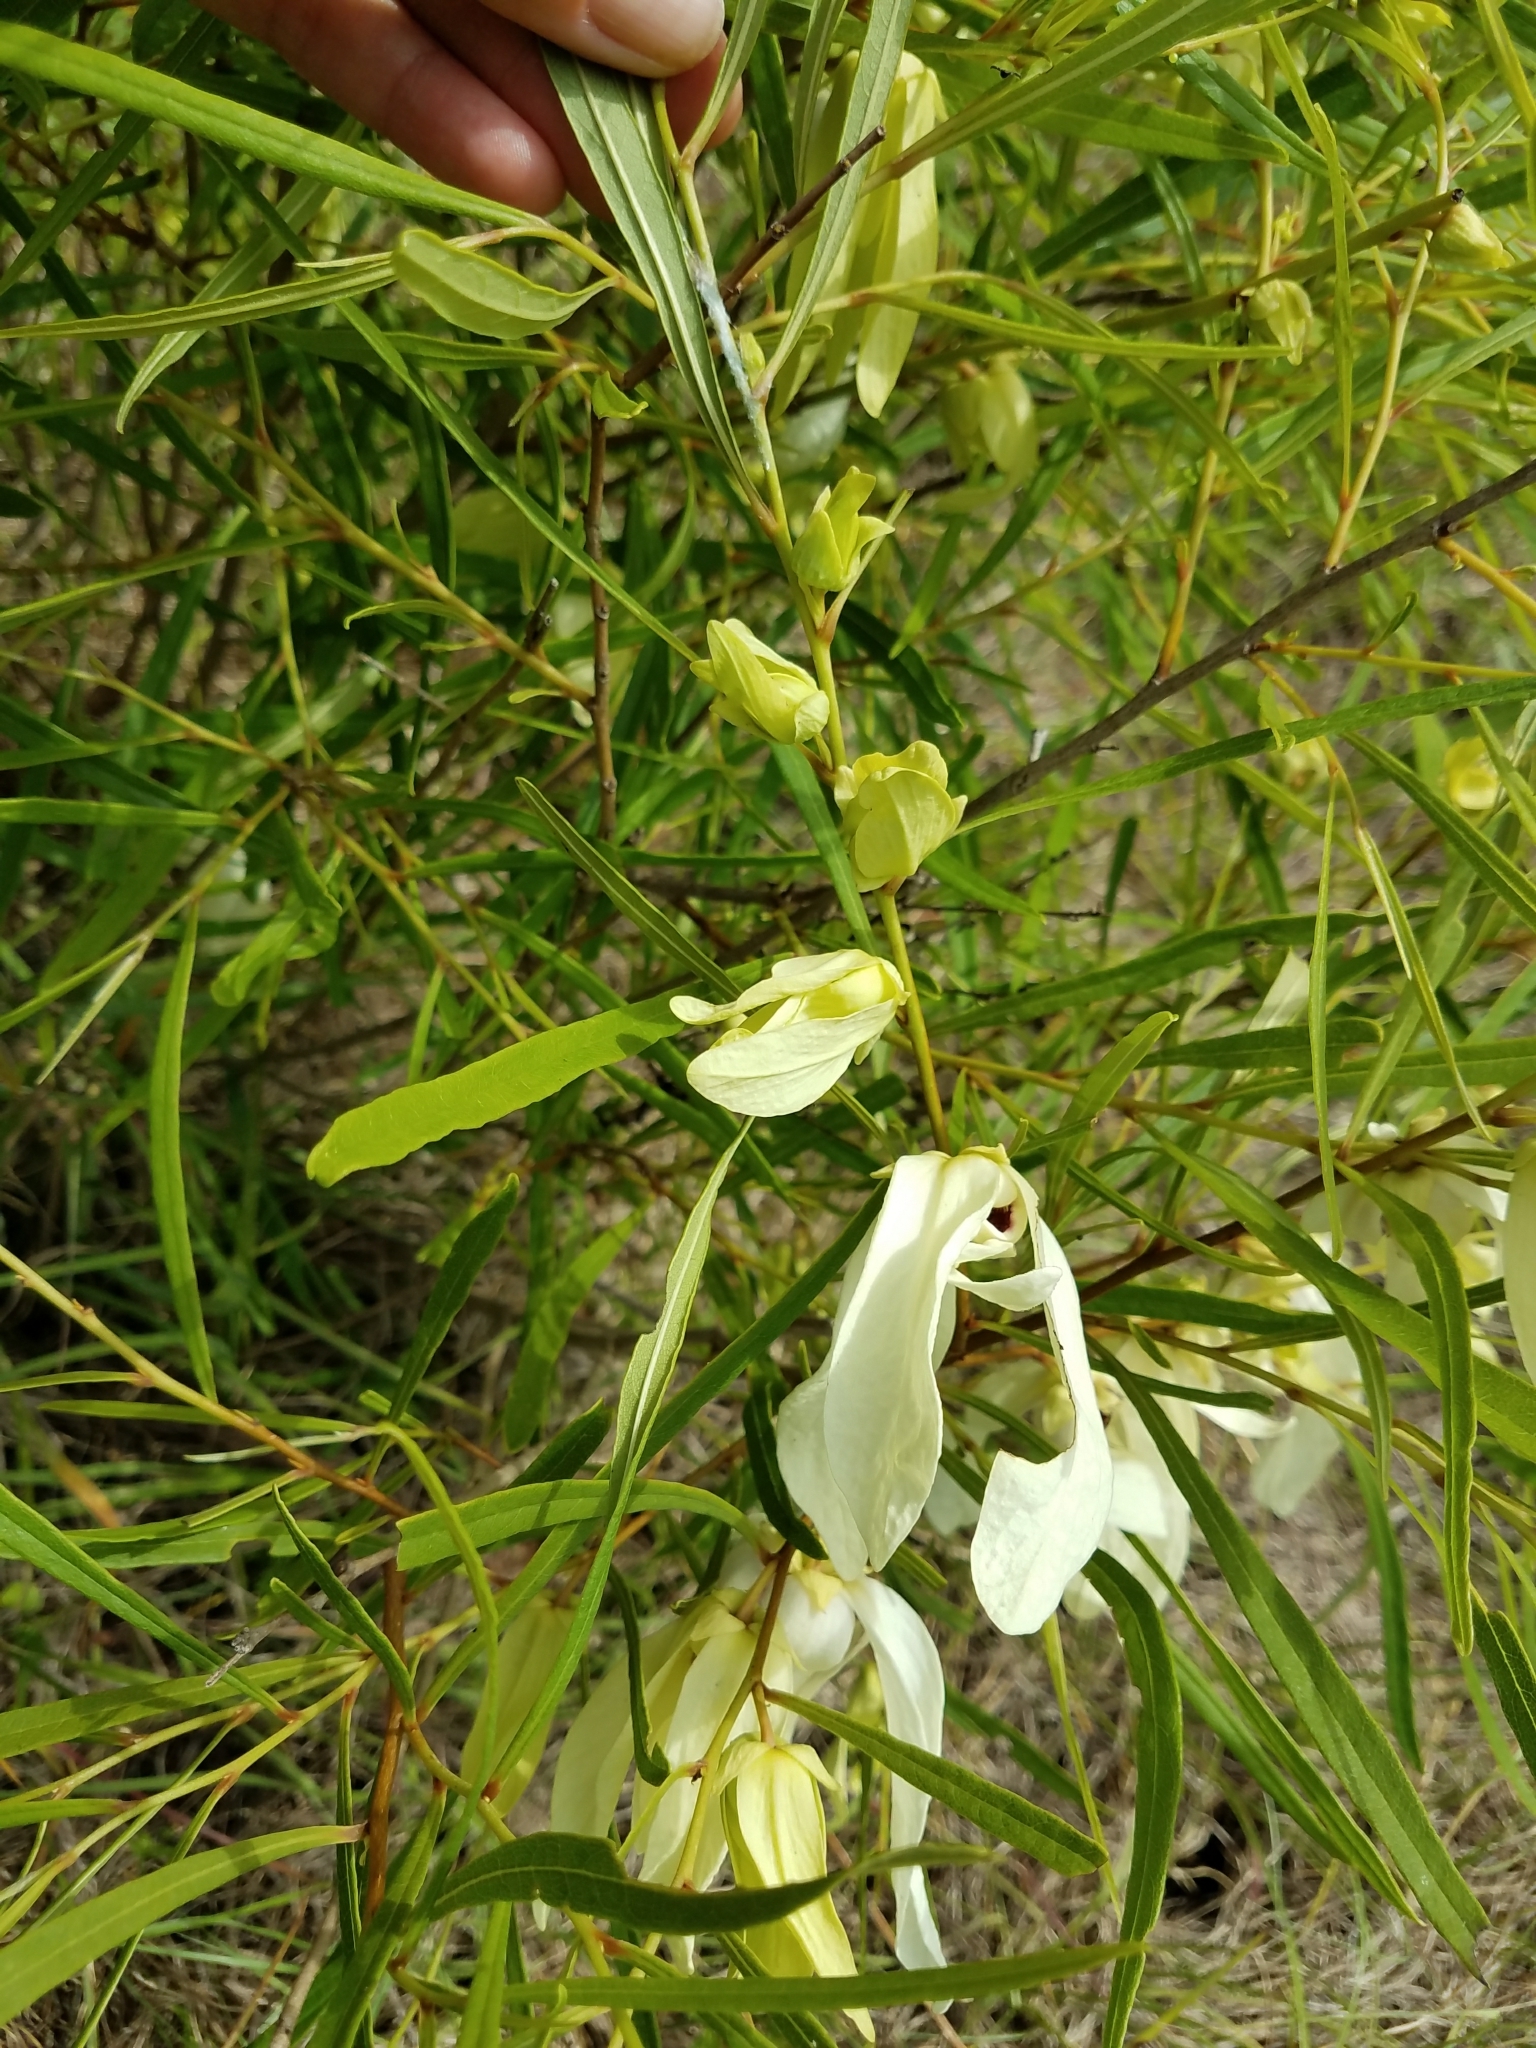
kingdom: Plantae
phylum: Tracheophyta
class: Magnoliopsida
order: Magnoliales
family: Annonaceae
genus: Asimina
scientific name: Asimina longifolia
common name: Polecatbush
